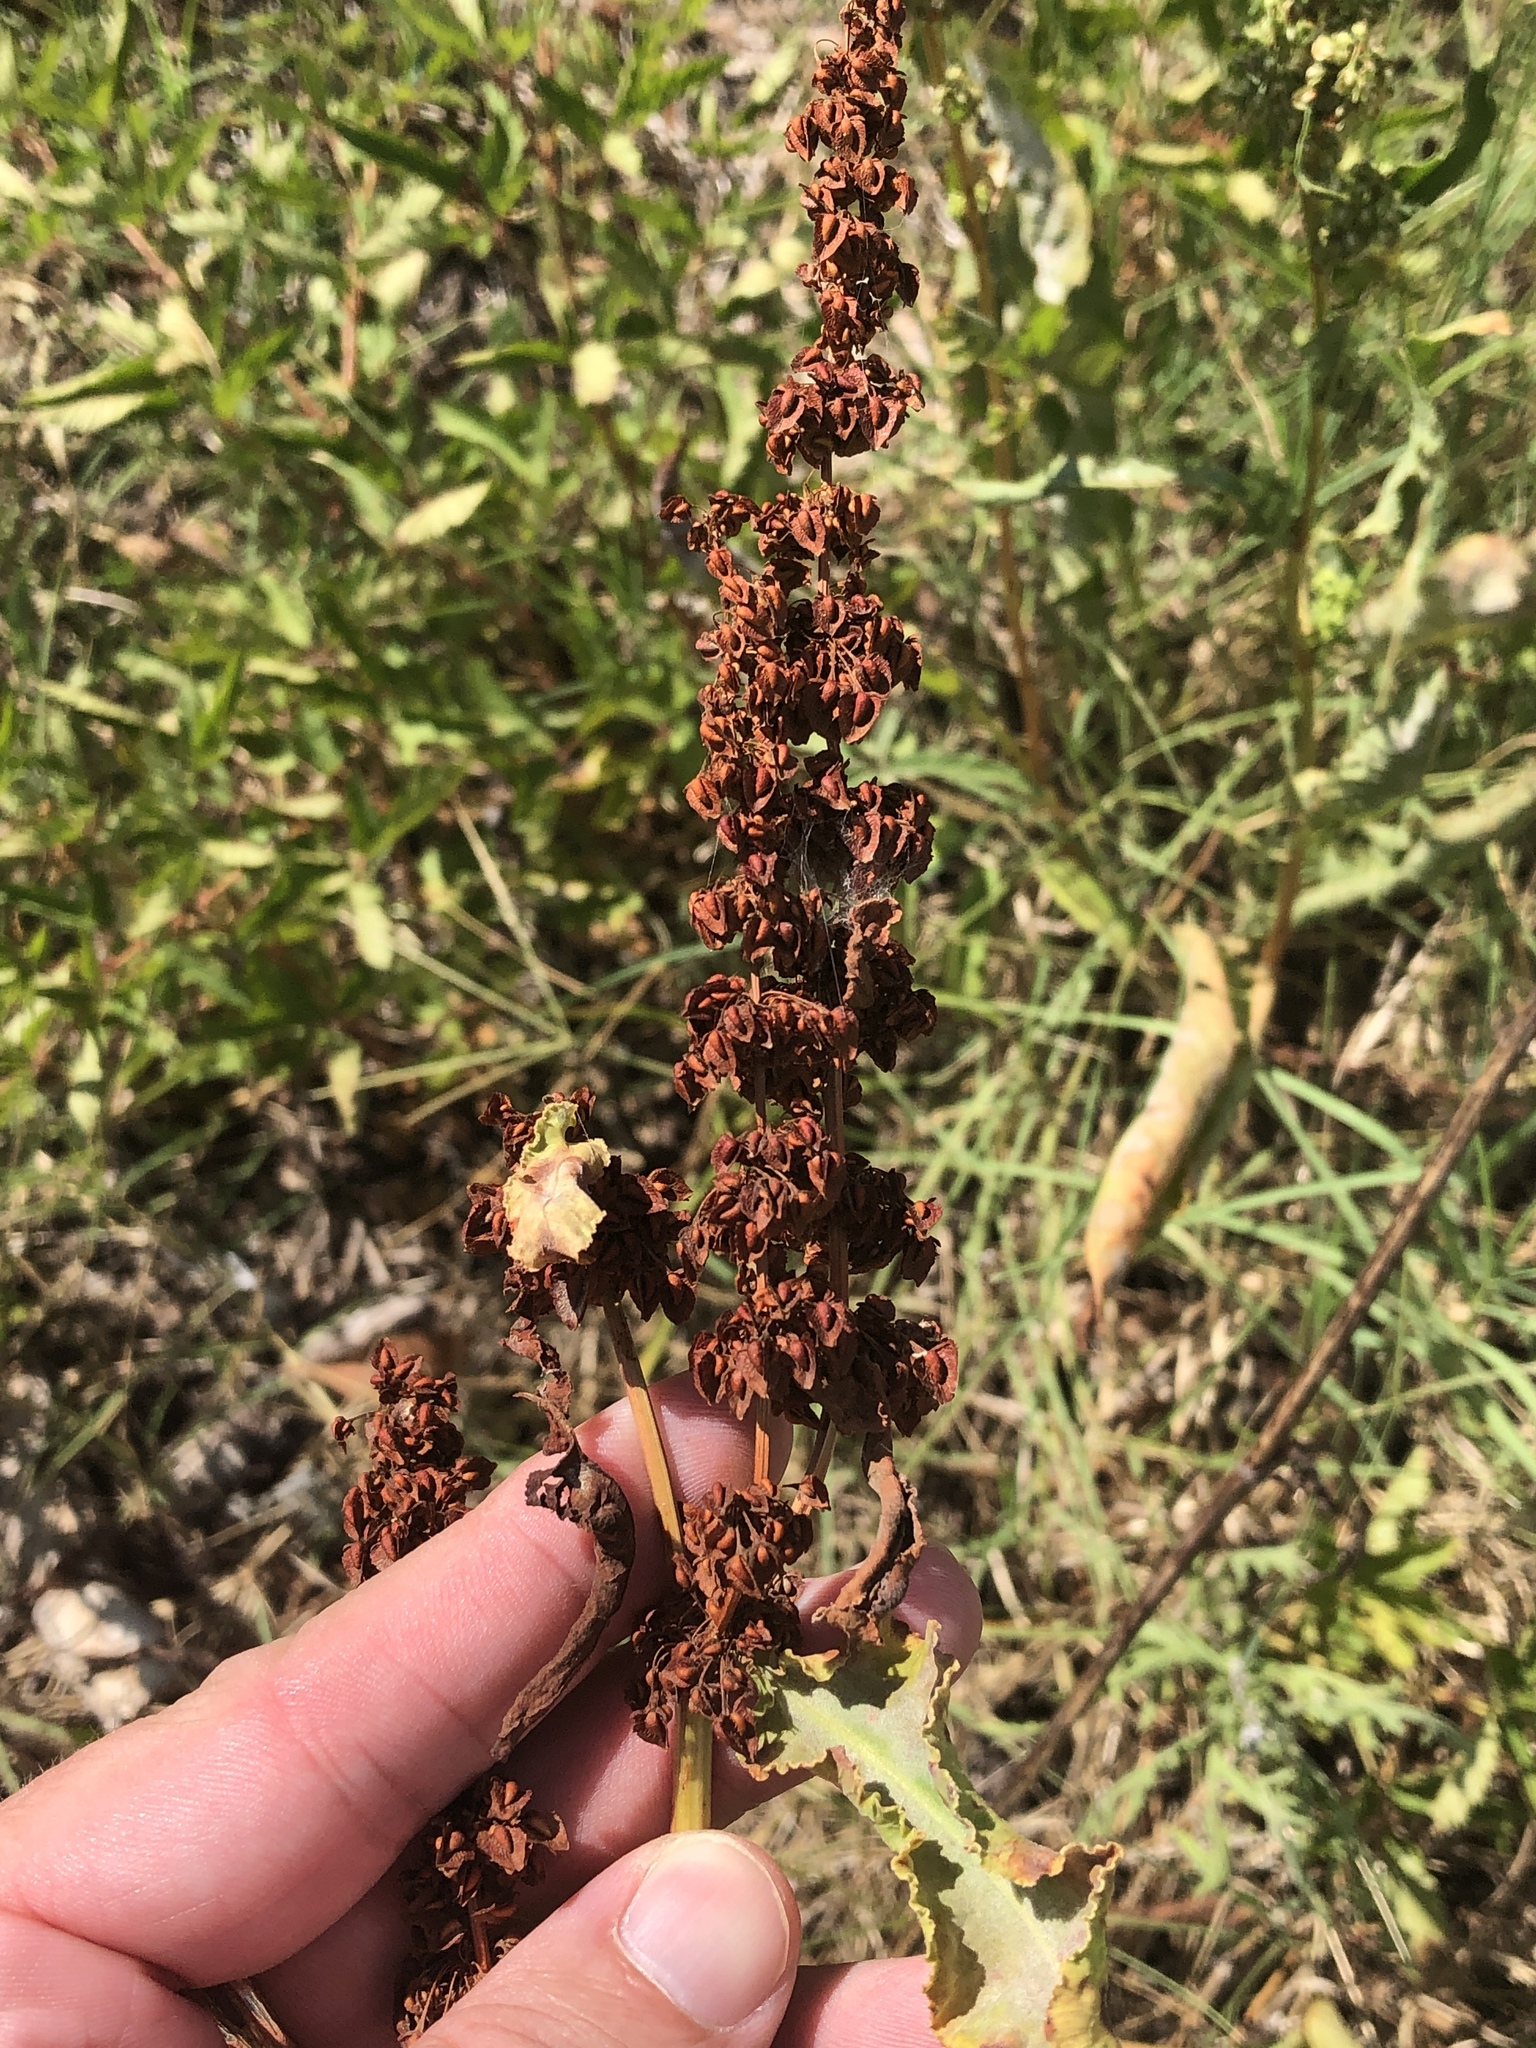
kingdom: Plantae
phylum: Tracheophyta
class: Magnoliopsida
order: Caryophyllales
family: Polygonaceae
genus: Rumex
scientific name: Rumex crispus
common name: Curled dock
